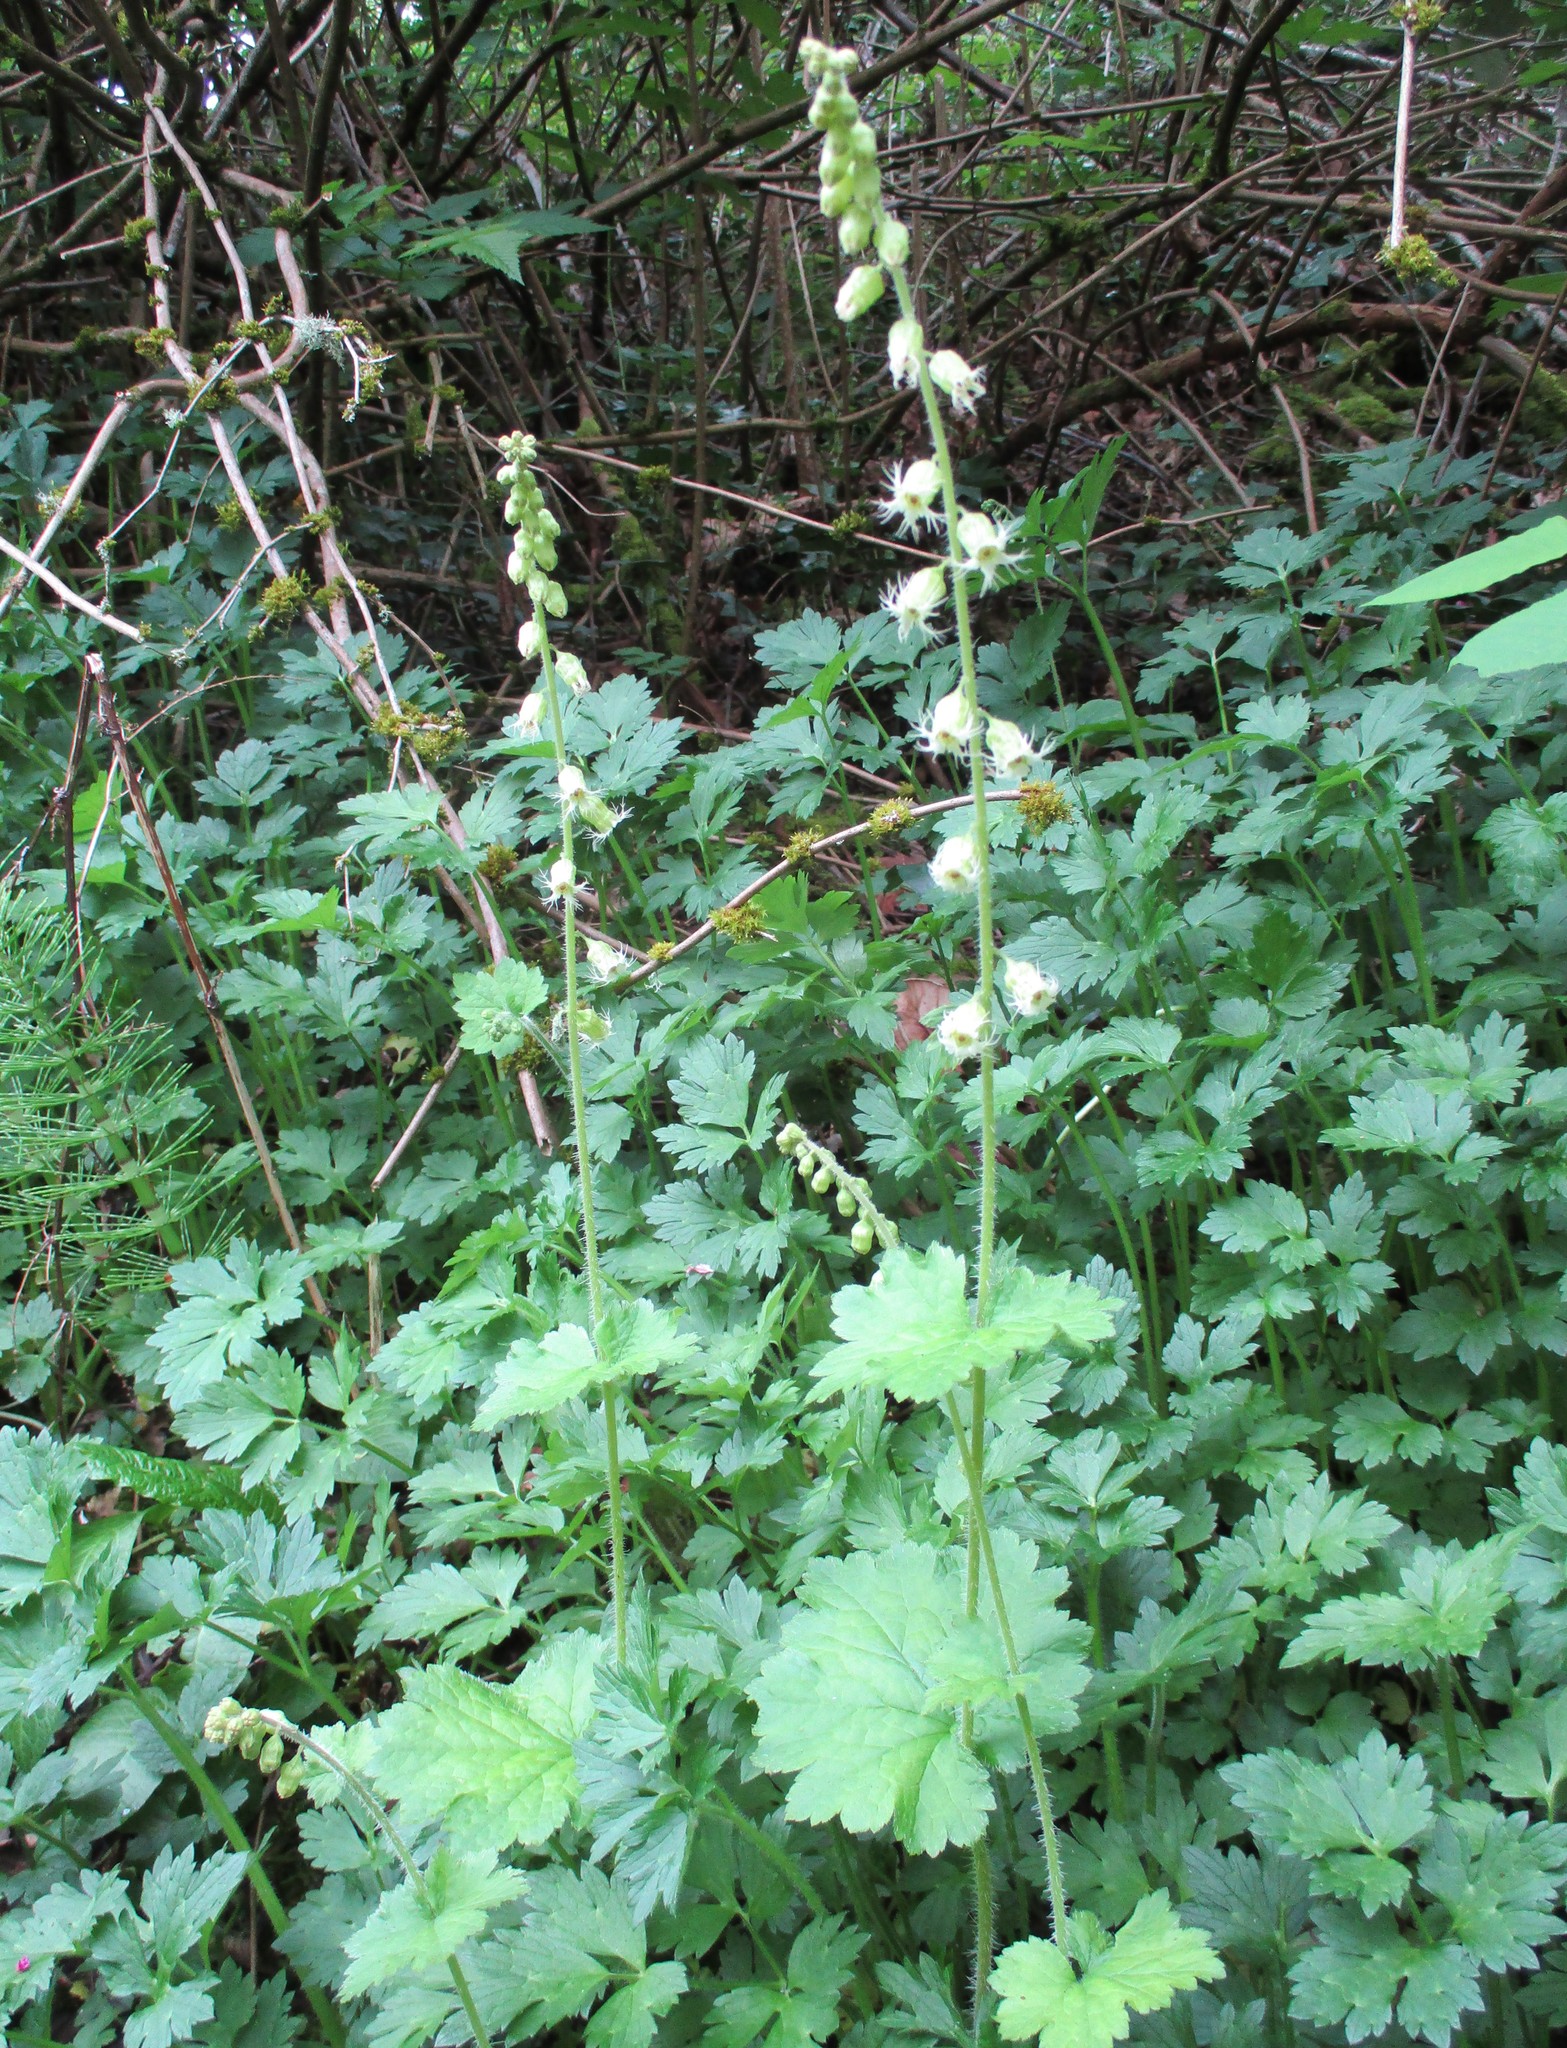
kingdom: Plantae
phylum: Tracheophyta
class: Magnoliopsida
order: Saxifragales
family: Saxifragaceae
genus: Tellima
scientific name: Tellima grandiflora
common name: Fringecups
